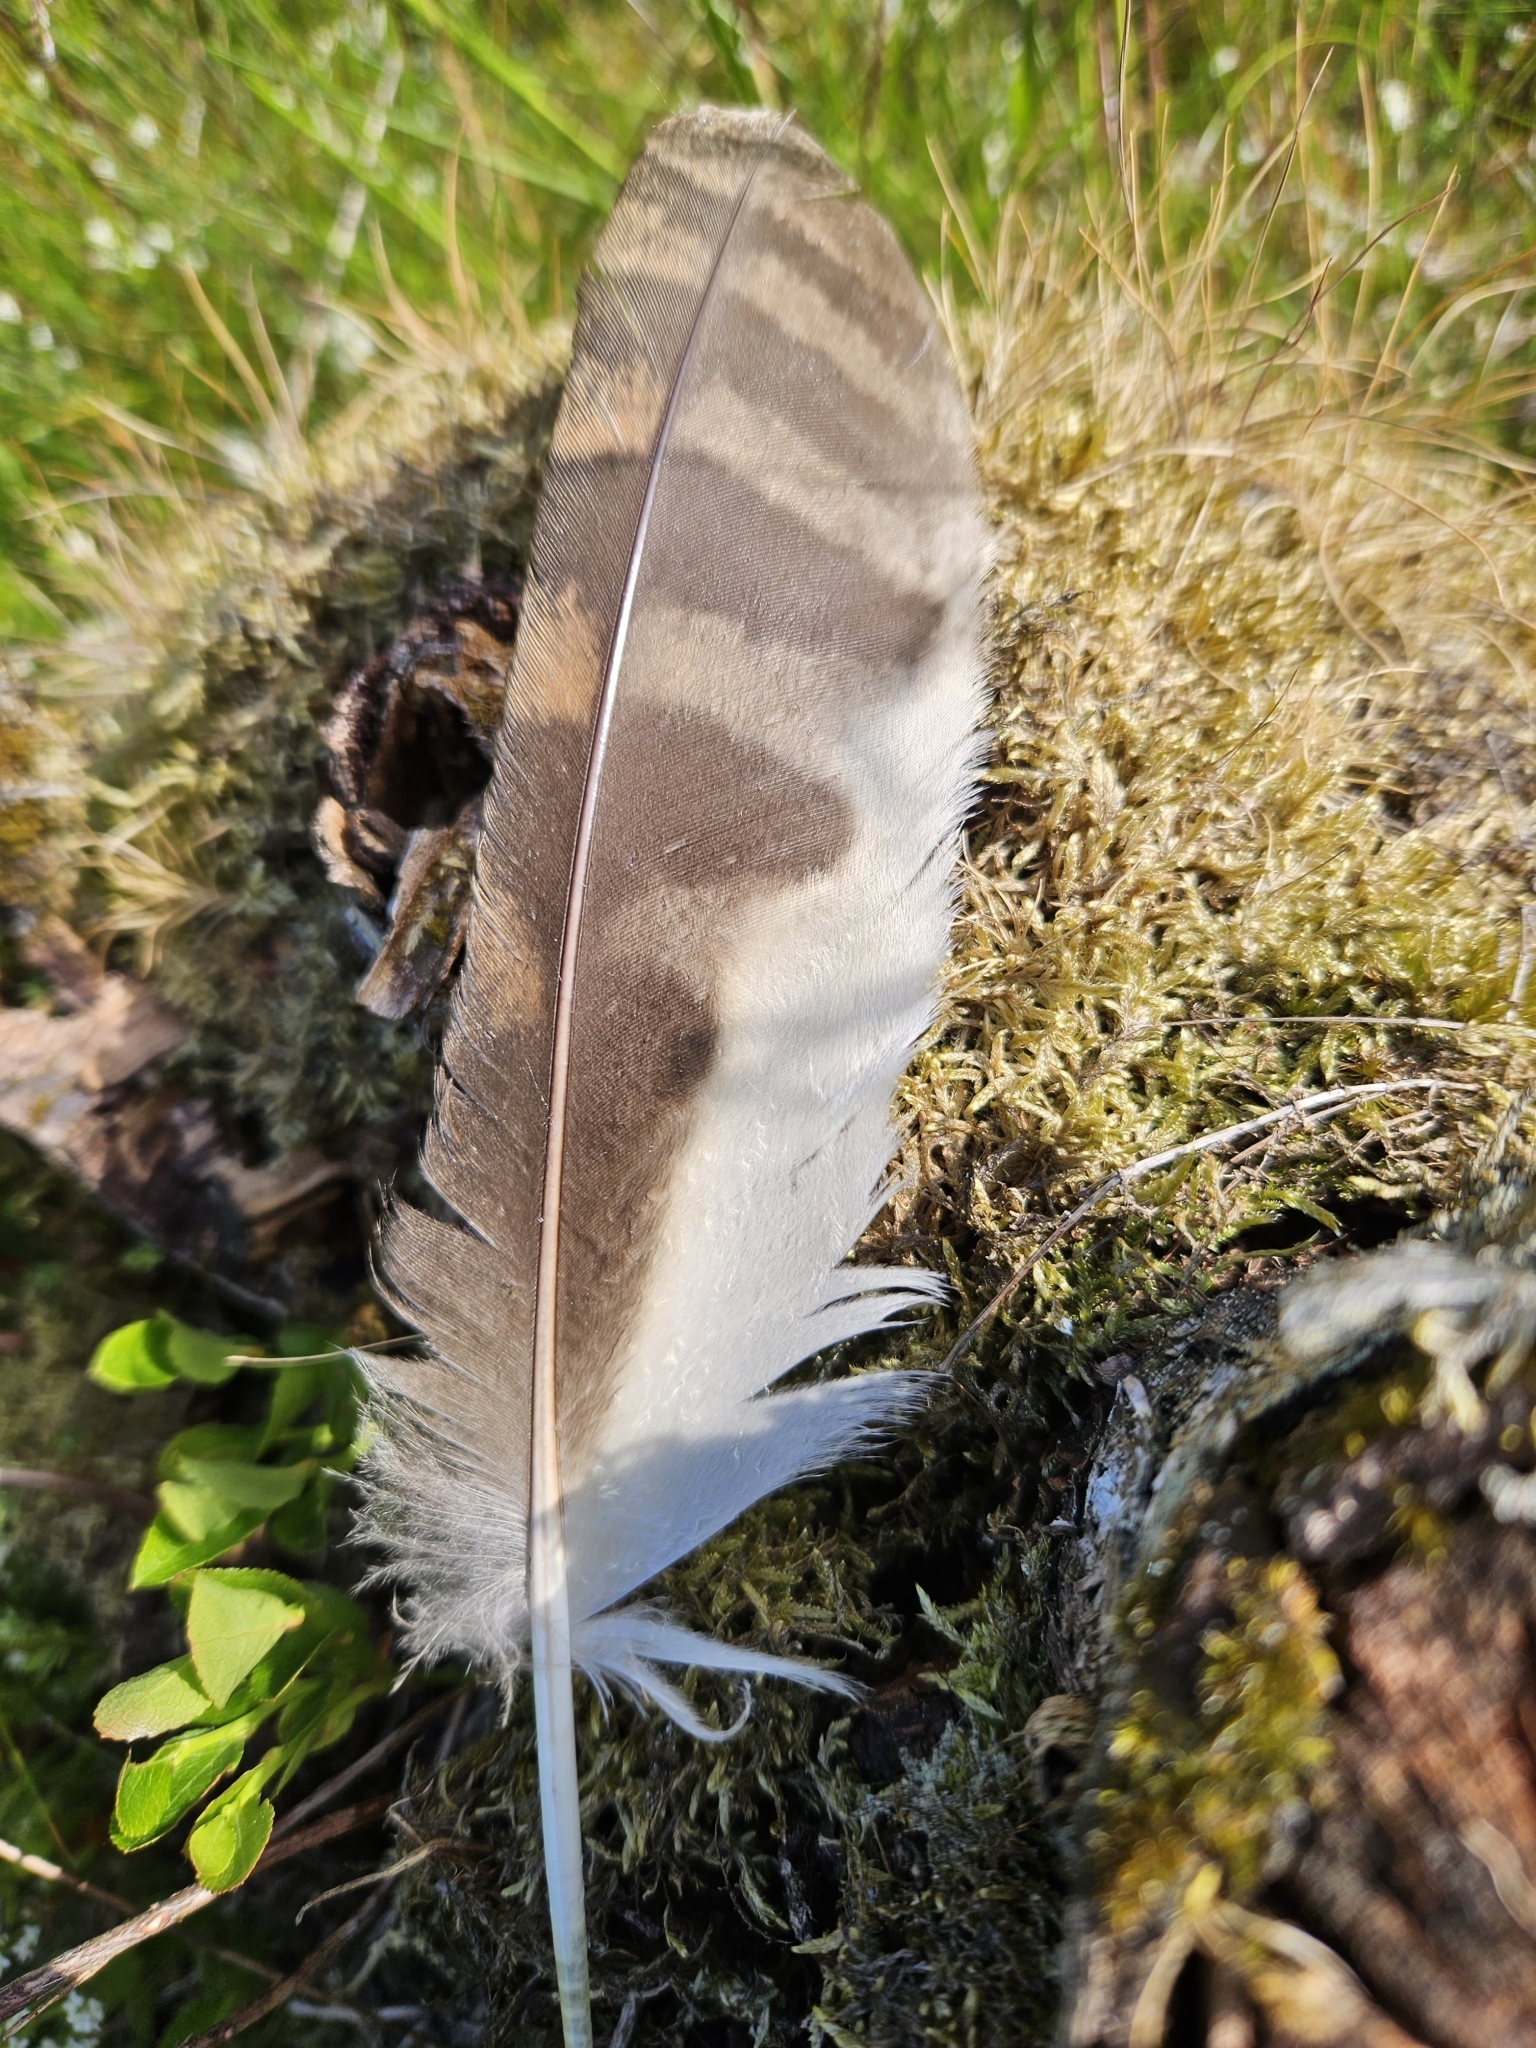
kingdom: Animalia
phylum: Chordata
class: Aves
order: Strigiformes
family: Strigidae
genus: Strix
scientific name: Strix aluco
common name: Tawny owl
